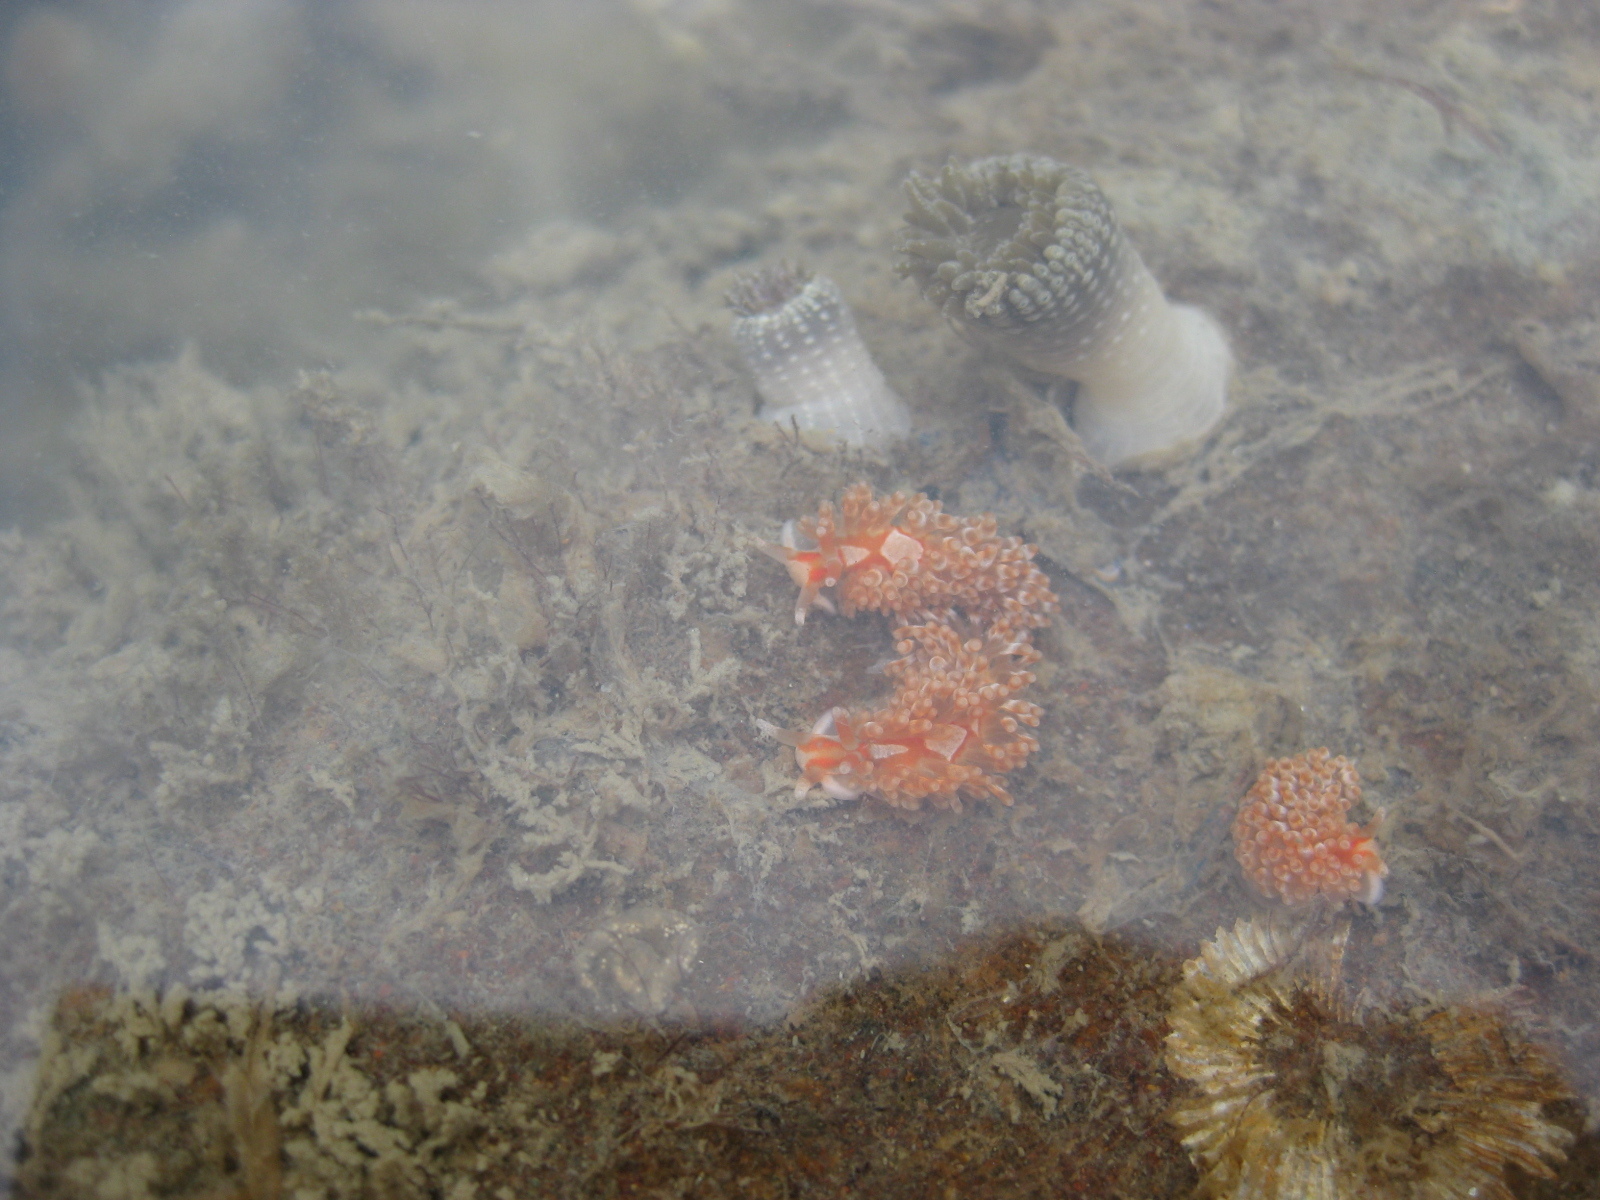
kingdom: Animalia
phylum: Mollusca
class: Gastropoda
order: Nudibranchia
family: Aeolidiidae
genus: Anteaeolidiella
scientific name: Anteaeolidiella lurana
